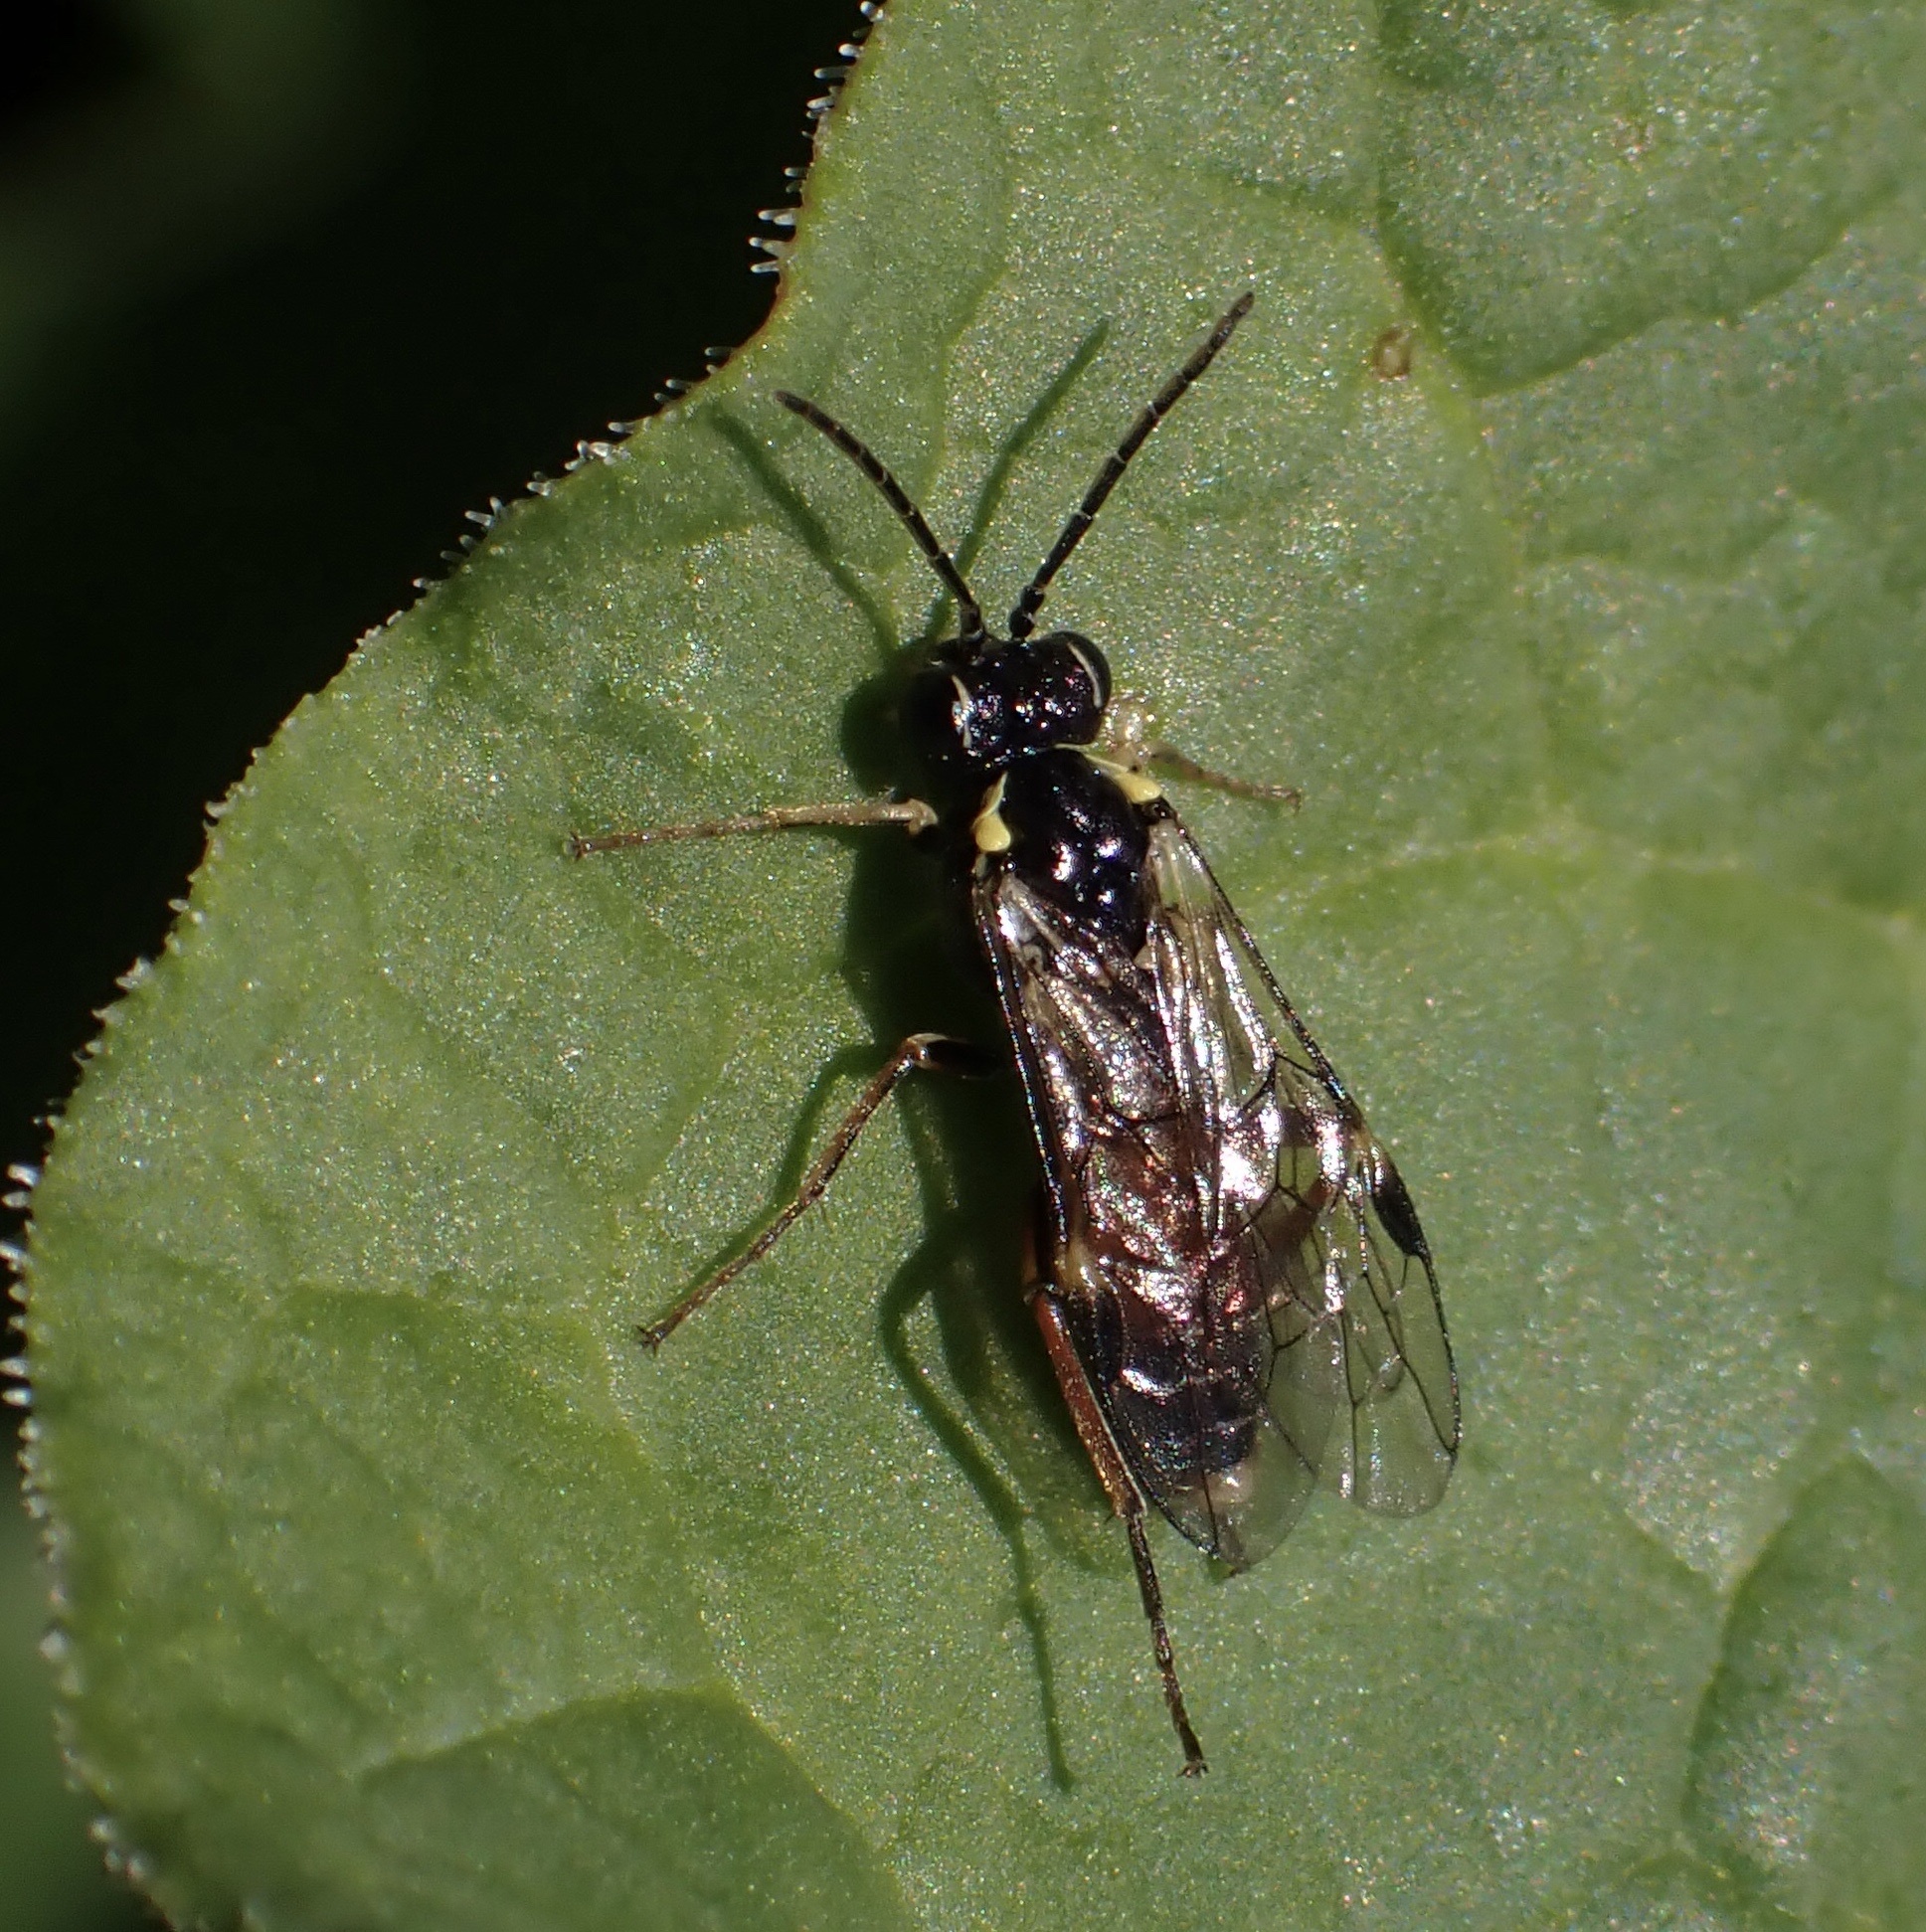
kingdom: Animalia
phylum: Arthropoda
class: Insecta
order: Hymenoptera
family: Tenthredinidae
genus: Aglaostigma
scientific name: Aglaostigma aucupariae
